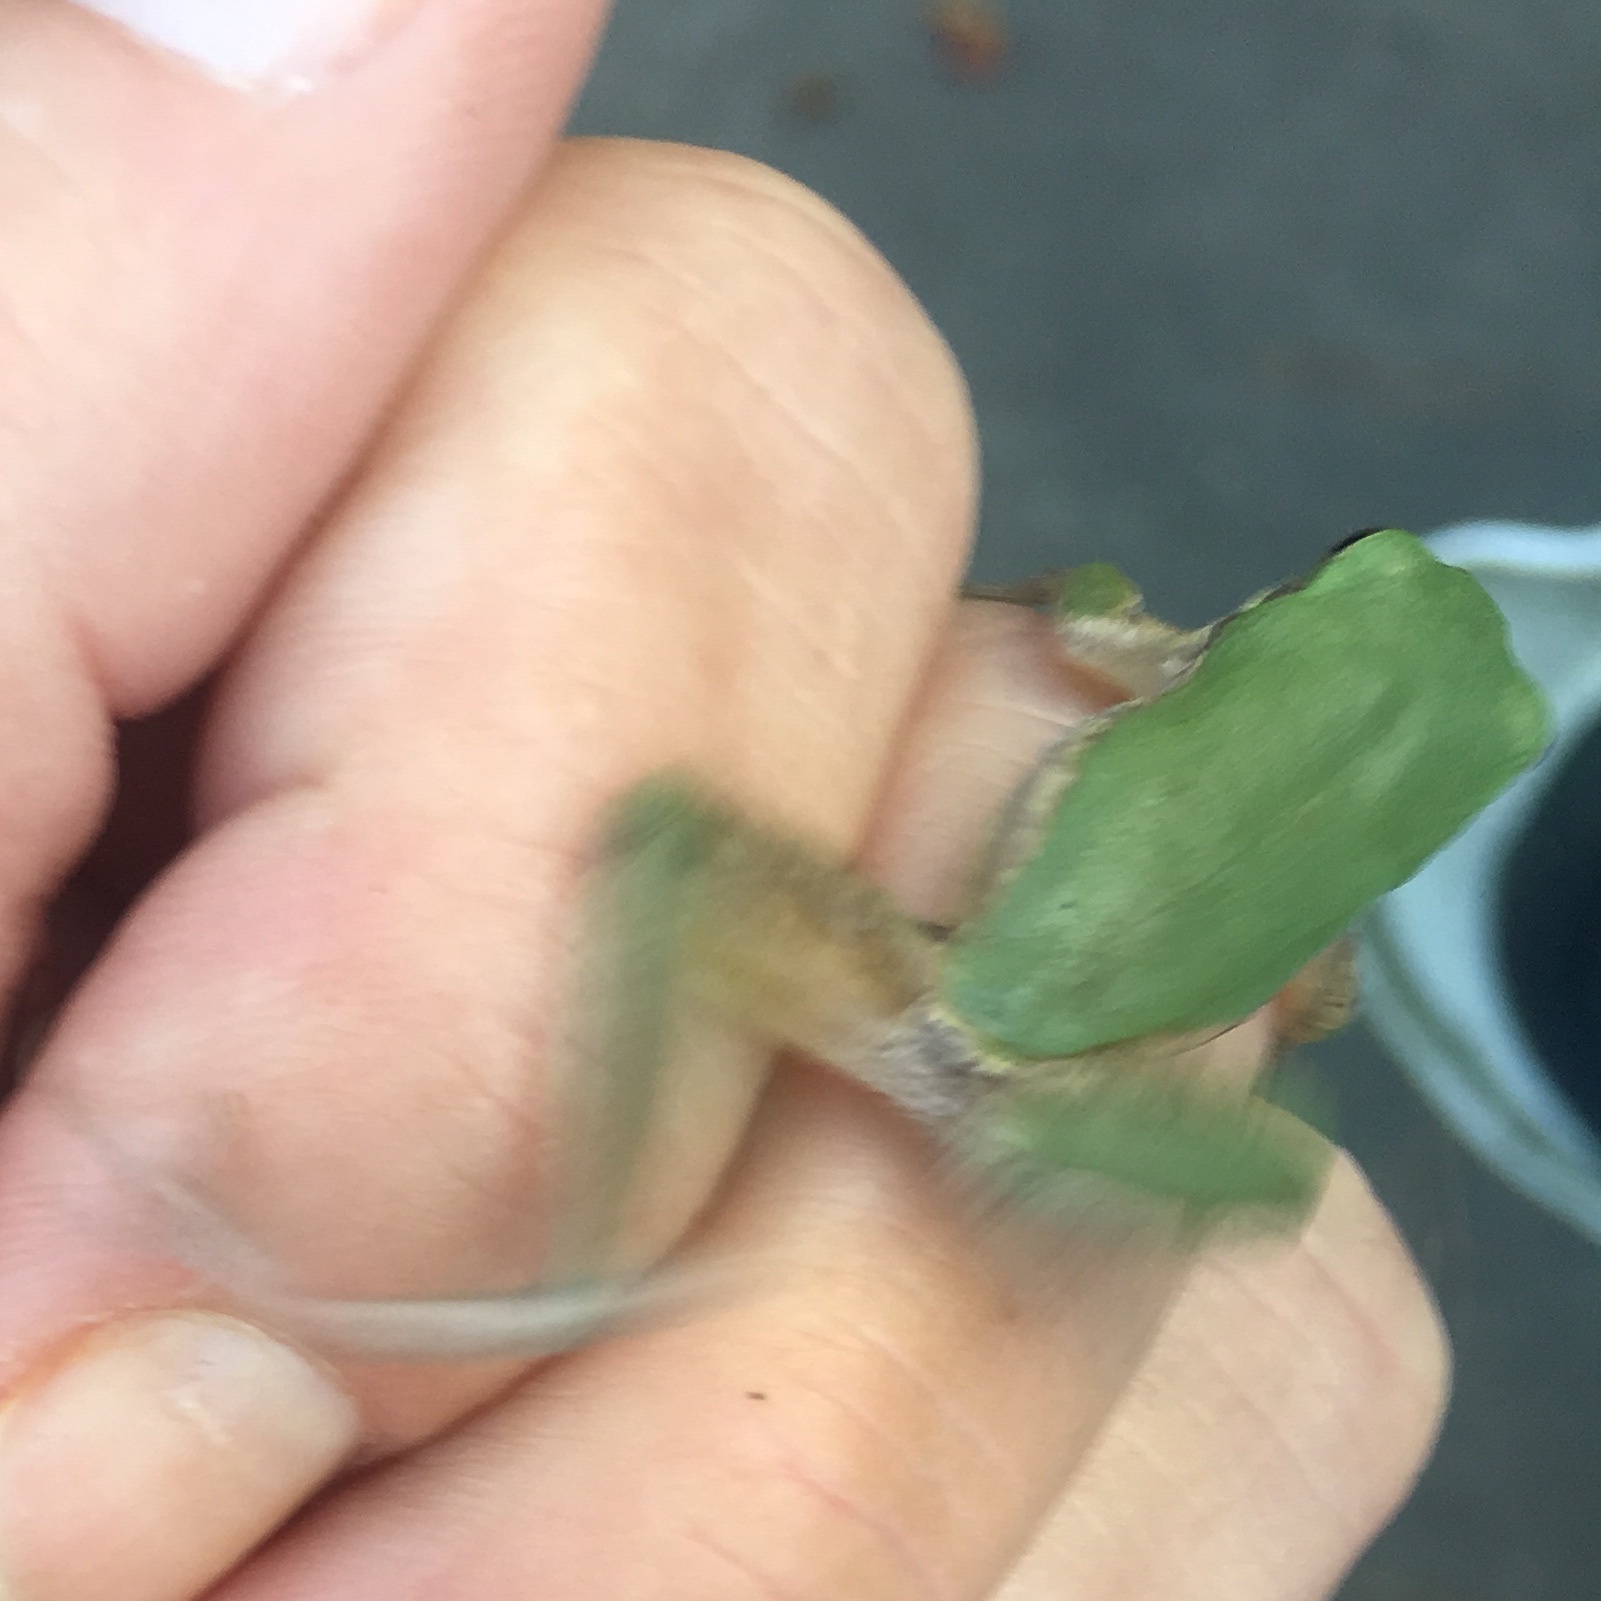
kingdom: Animalia
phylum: Chordata
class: Amphibia
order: Anura
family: Hylidae
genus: Dryophytes
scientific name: Dryophytes squirellus
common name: Squirrel treefrog
